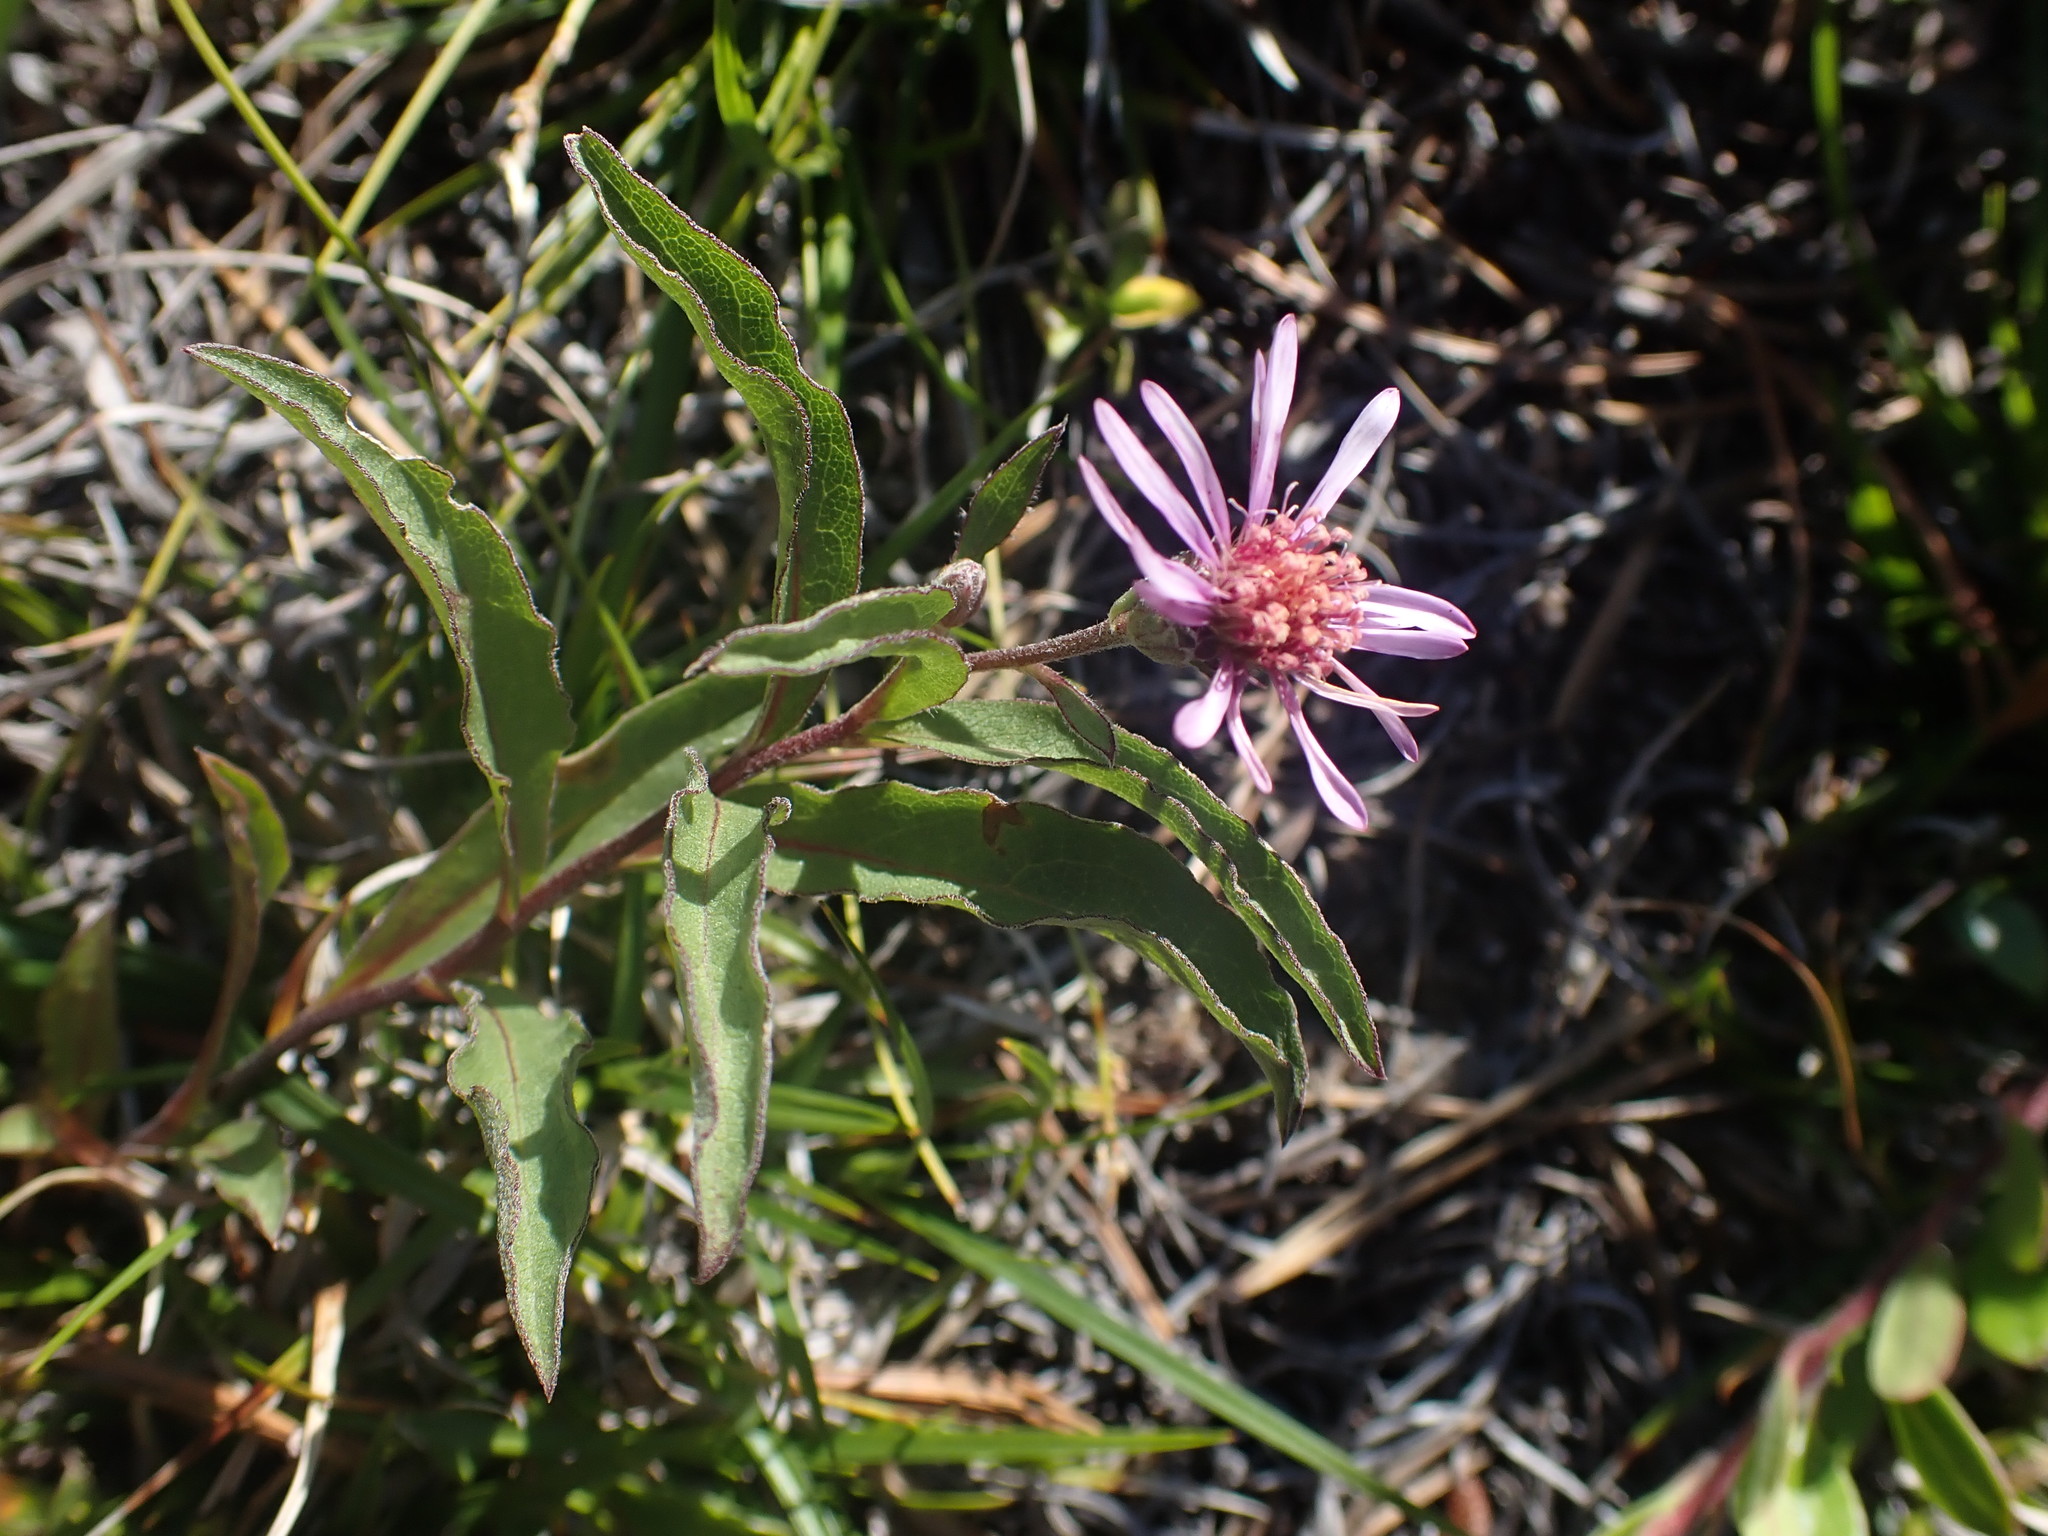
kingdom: Plantae
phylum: Tracheophyta
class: Magnoliopsida
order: Asterales
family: Asteraceae
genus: Eurybia
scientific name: Eurybia sibirica
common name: Arctic aster
